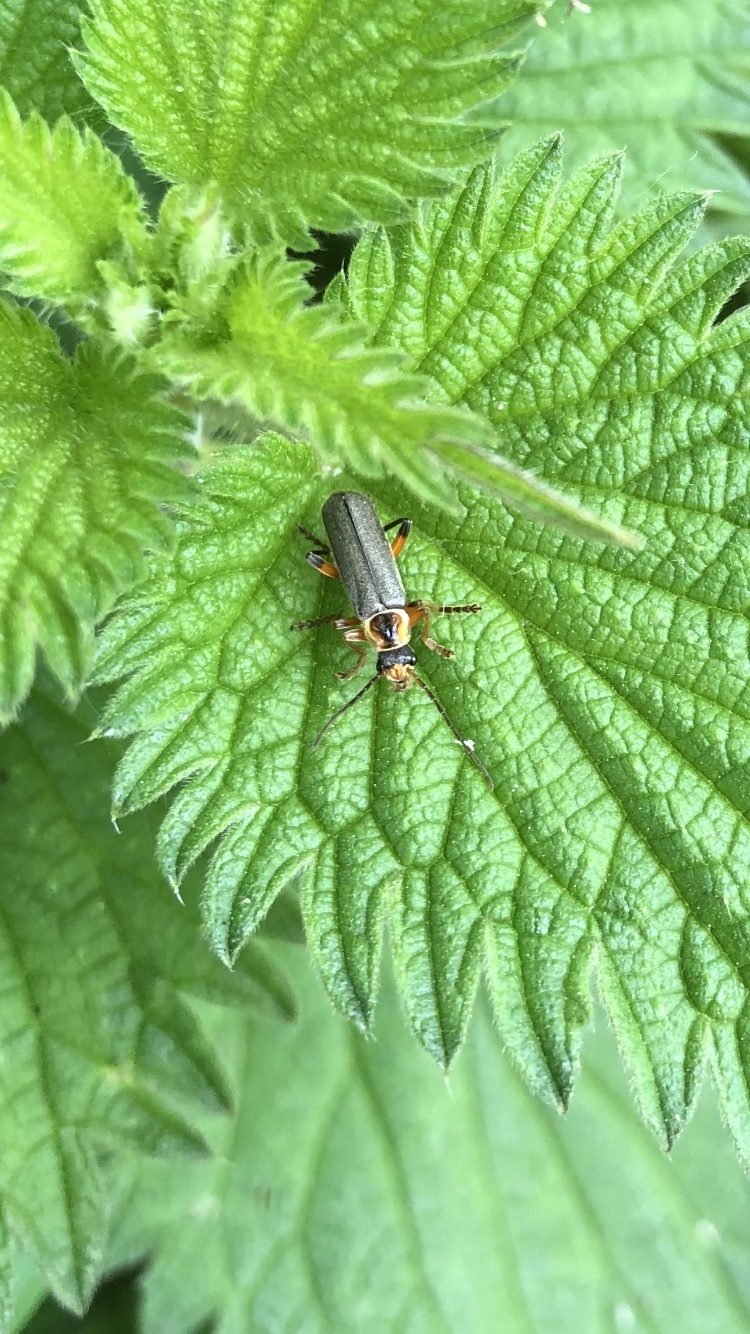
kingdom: Animalia
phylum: Arthropoda
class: Insecta
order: Coleoptera
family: Cantharidae
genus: Cantharis
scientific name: Cantharis nigricans
